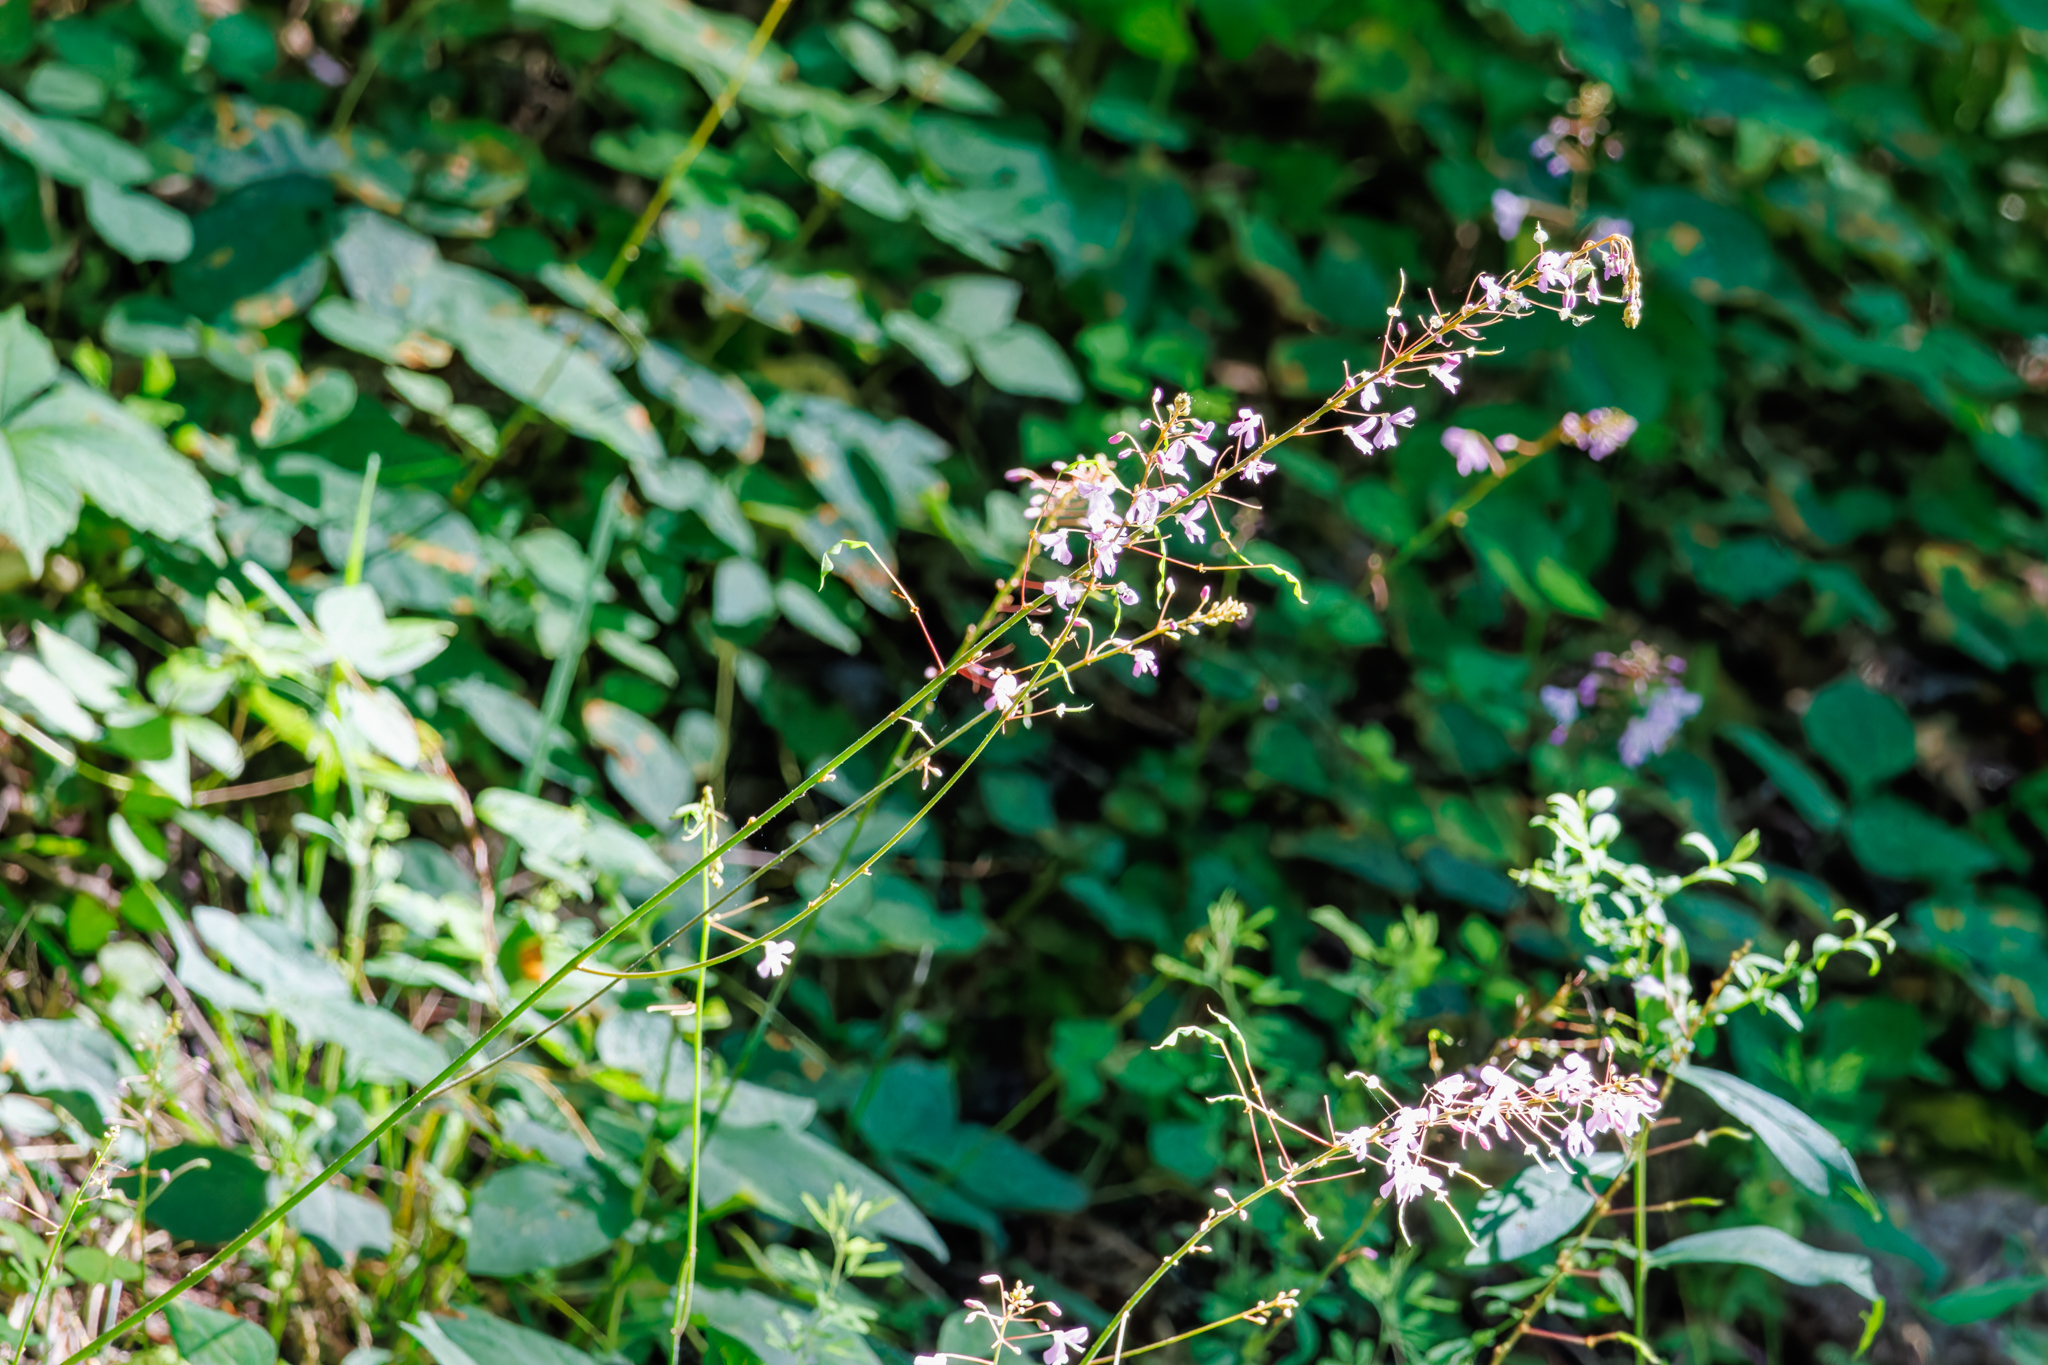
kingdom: Plantae
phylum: Tracheophyta
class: Magnoliopsida
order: Fabales
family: Fabaceae
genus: Hylodesmum
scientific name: Hylodesmum nudiflorum
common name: Bare-stemmed tick-trefoil
